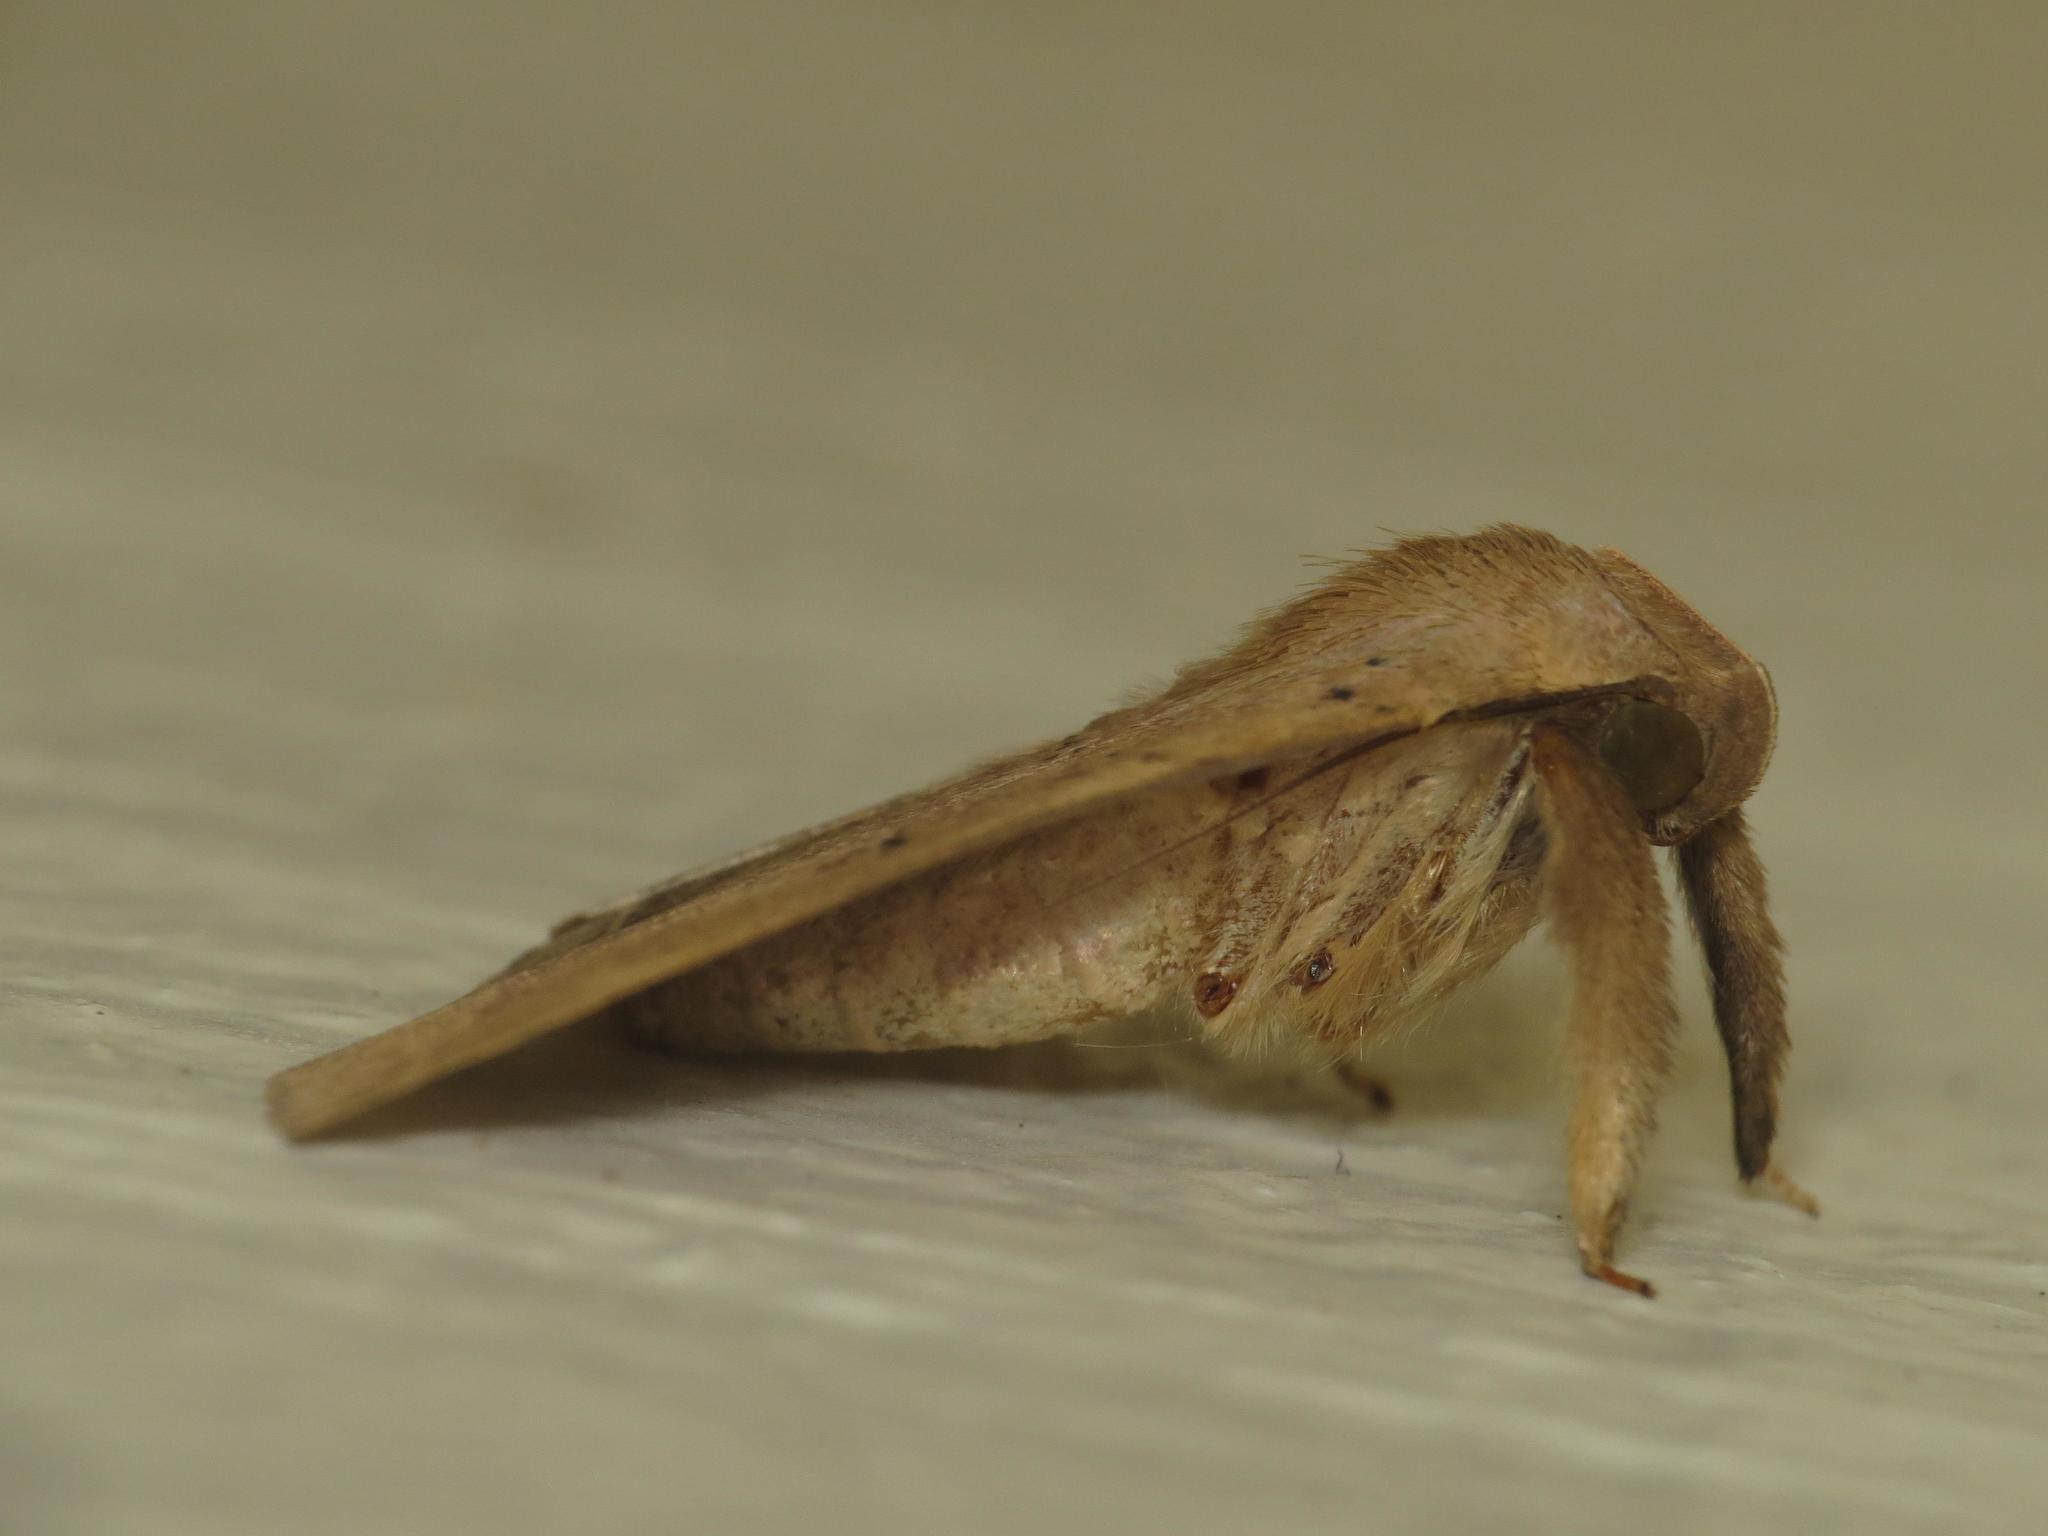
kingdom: Animalia
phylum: Arthropoda
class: Insecta
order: Lepidoptera
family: Erebidae
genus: Simplicia
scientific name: Simplicia erebina
